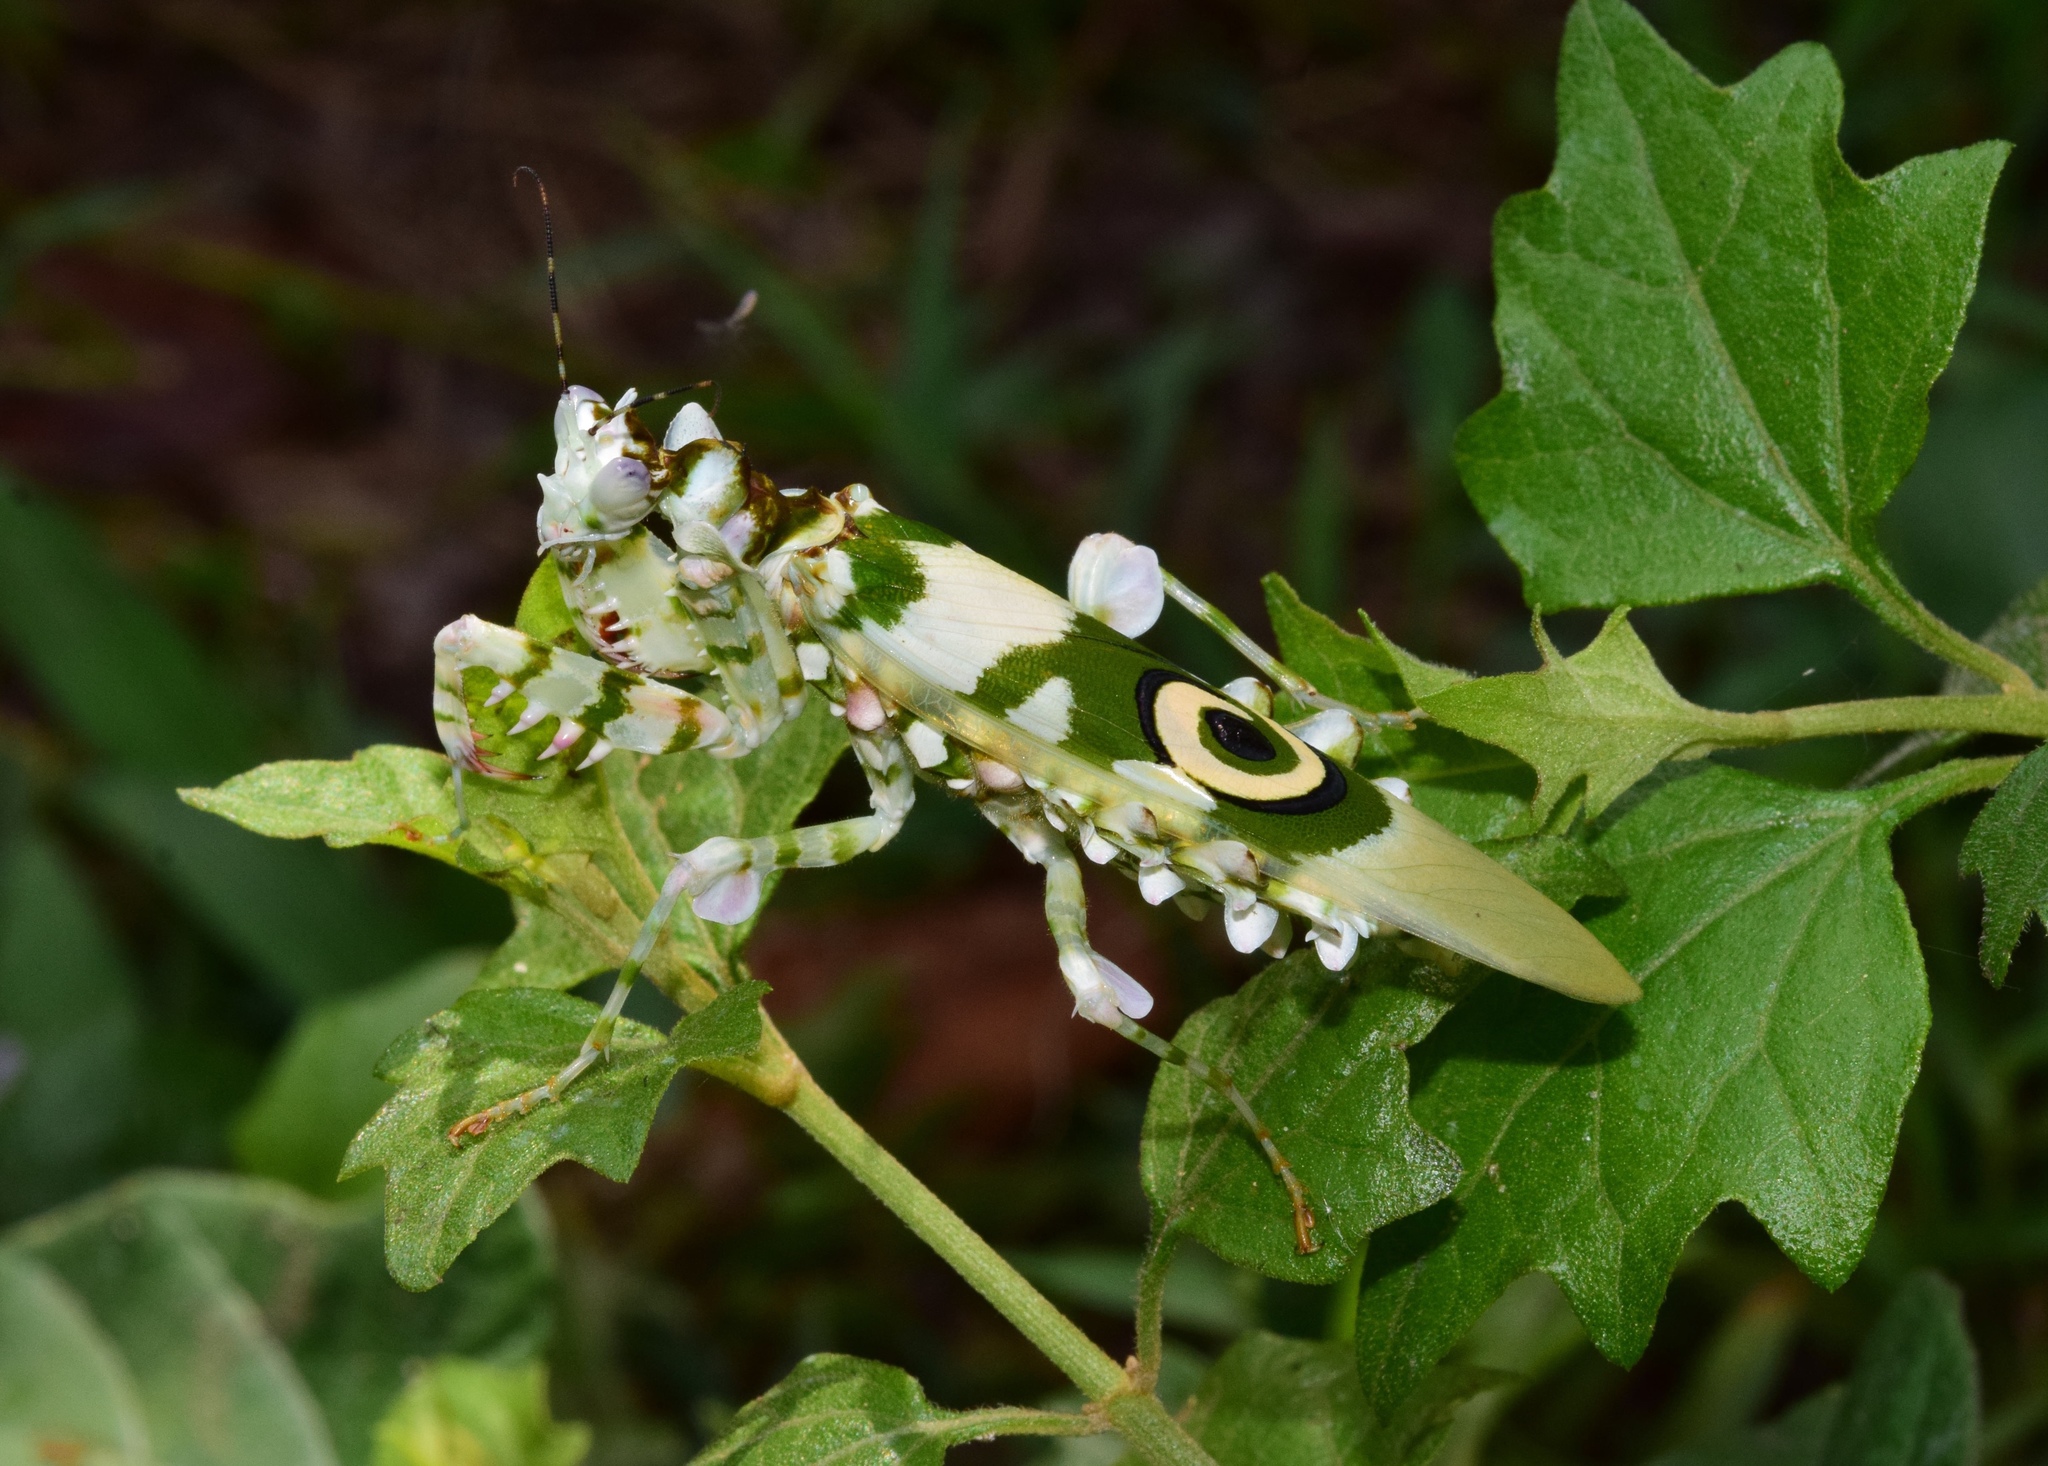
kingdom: Animalia
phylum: Arthropoda
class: Insecta
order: Mantodea
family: Hymenopodidae
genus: Pseudocreobotra
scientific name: Pseudocreobotra wahlbergi
